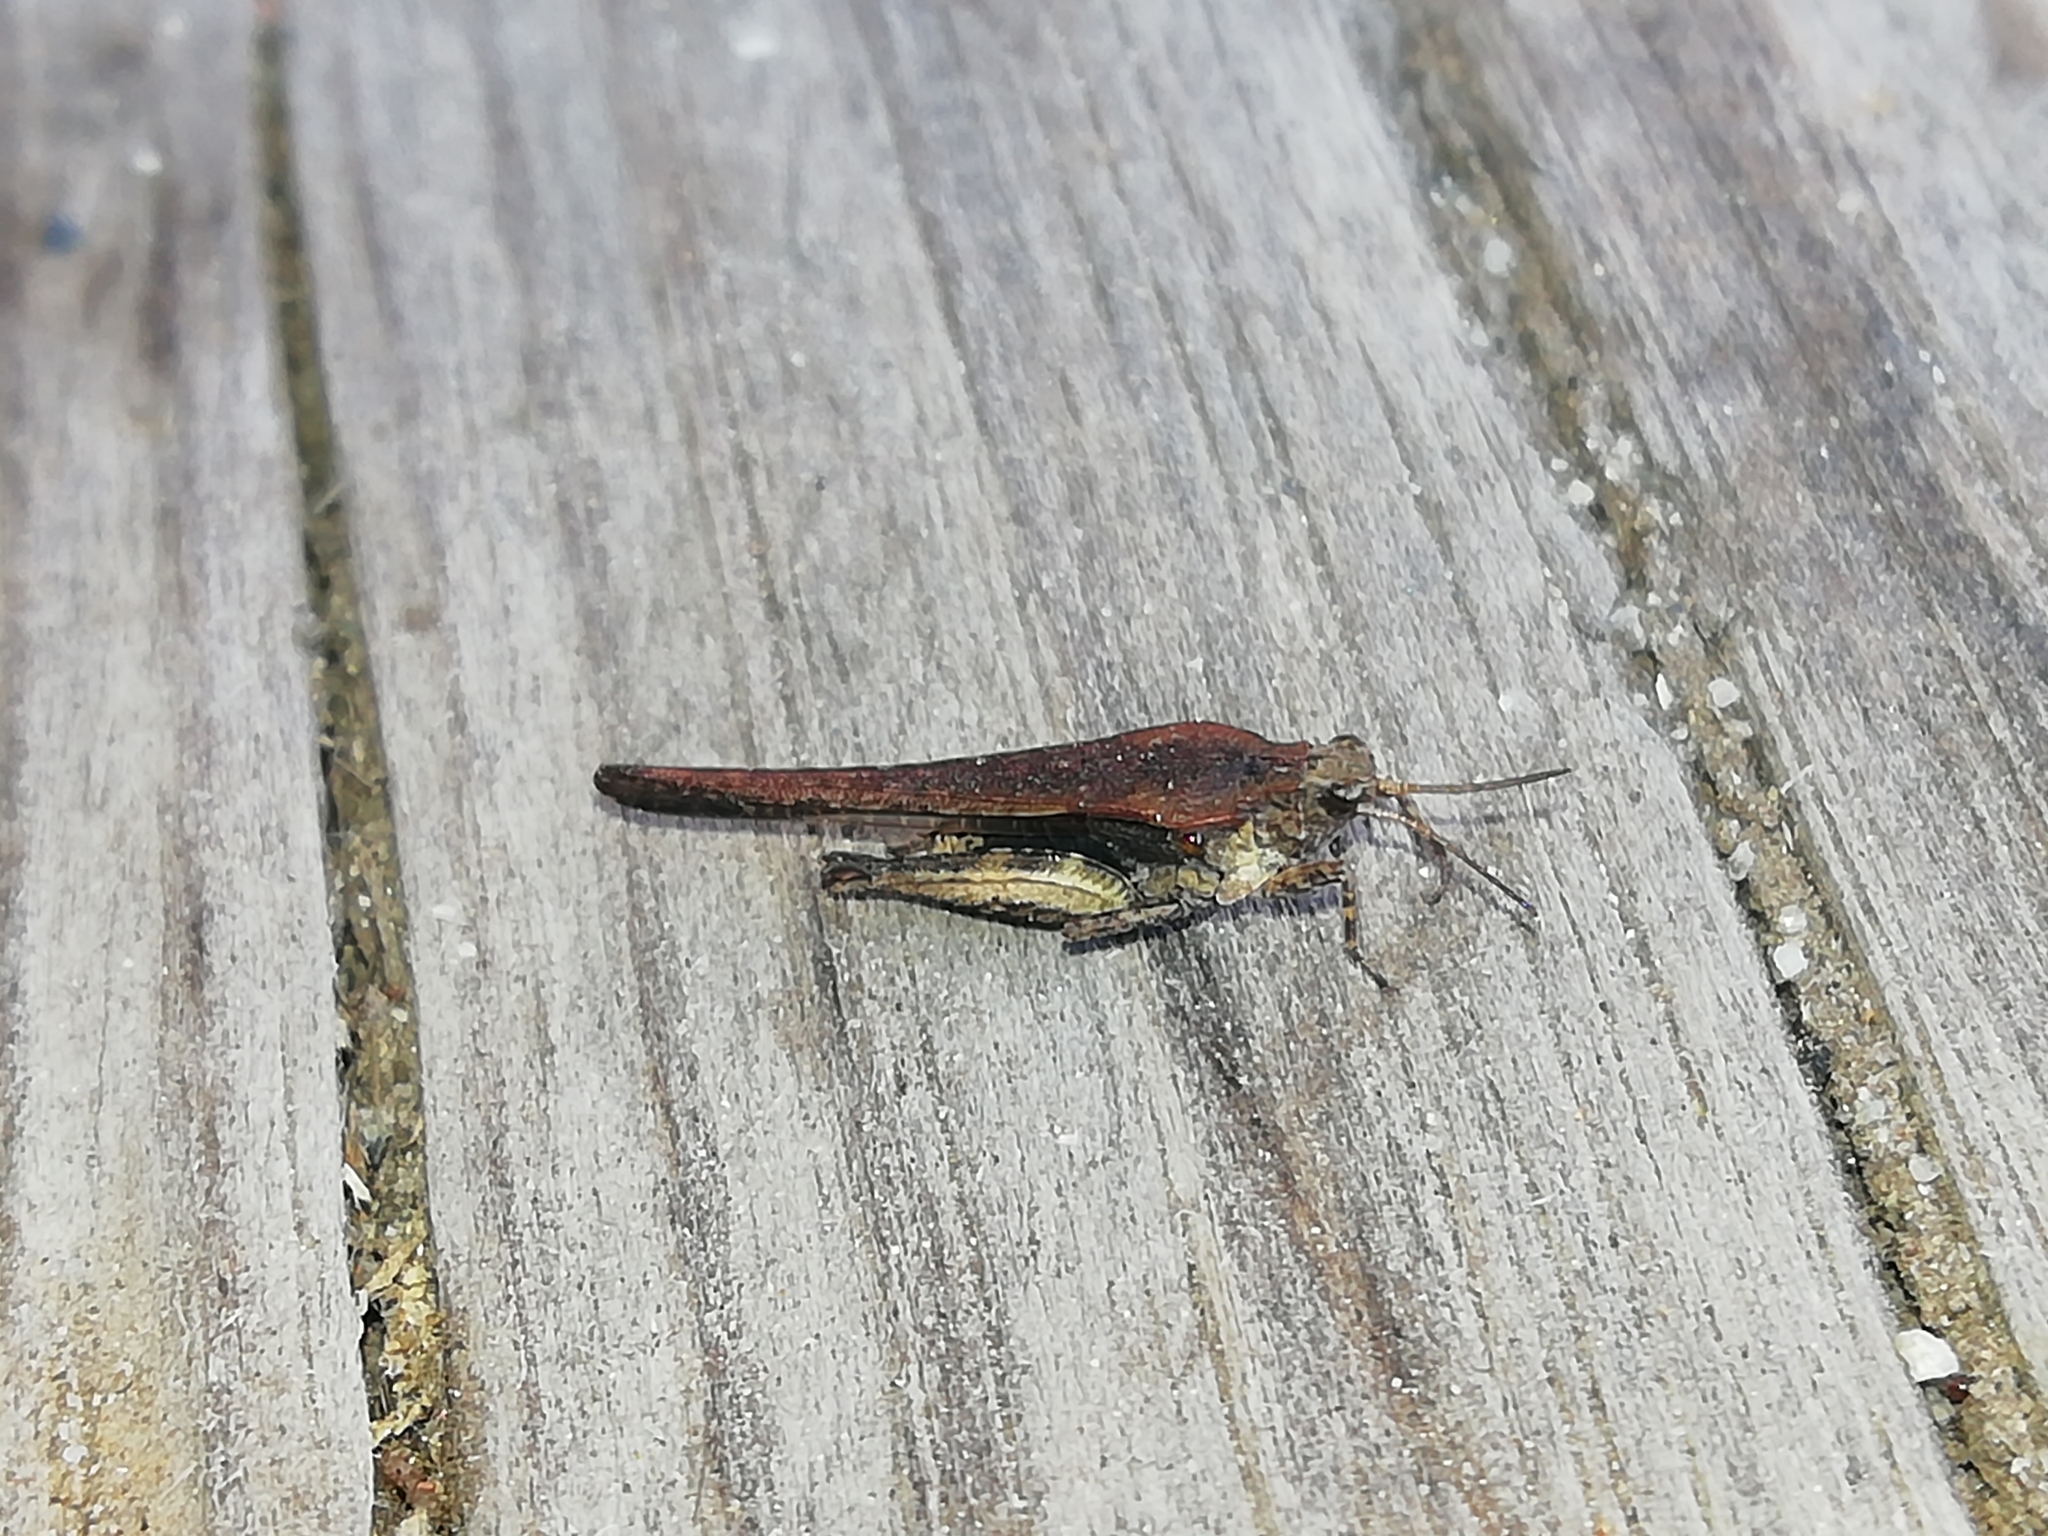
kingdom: Animalia
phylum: Arthropoda
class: Insecta
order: Orthoptera
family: Tetrigidae
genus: Tetrix
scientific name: Tetrix subulata
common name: Slender ground-hopper
